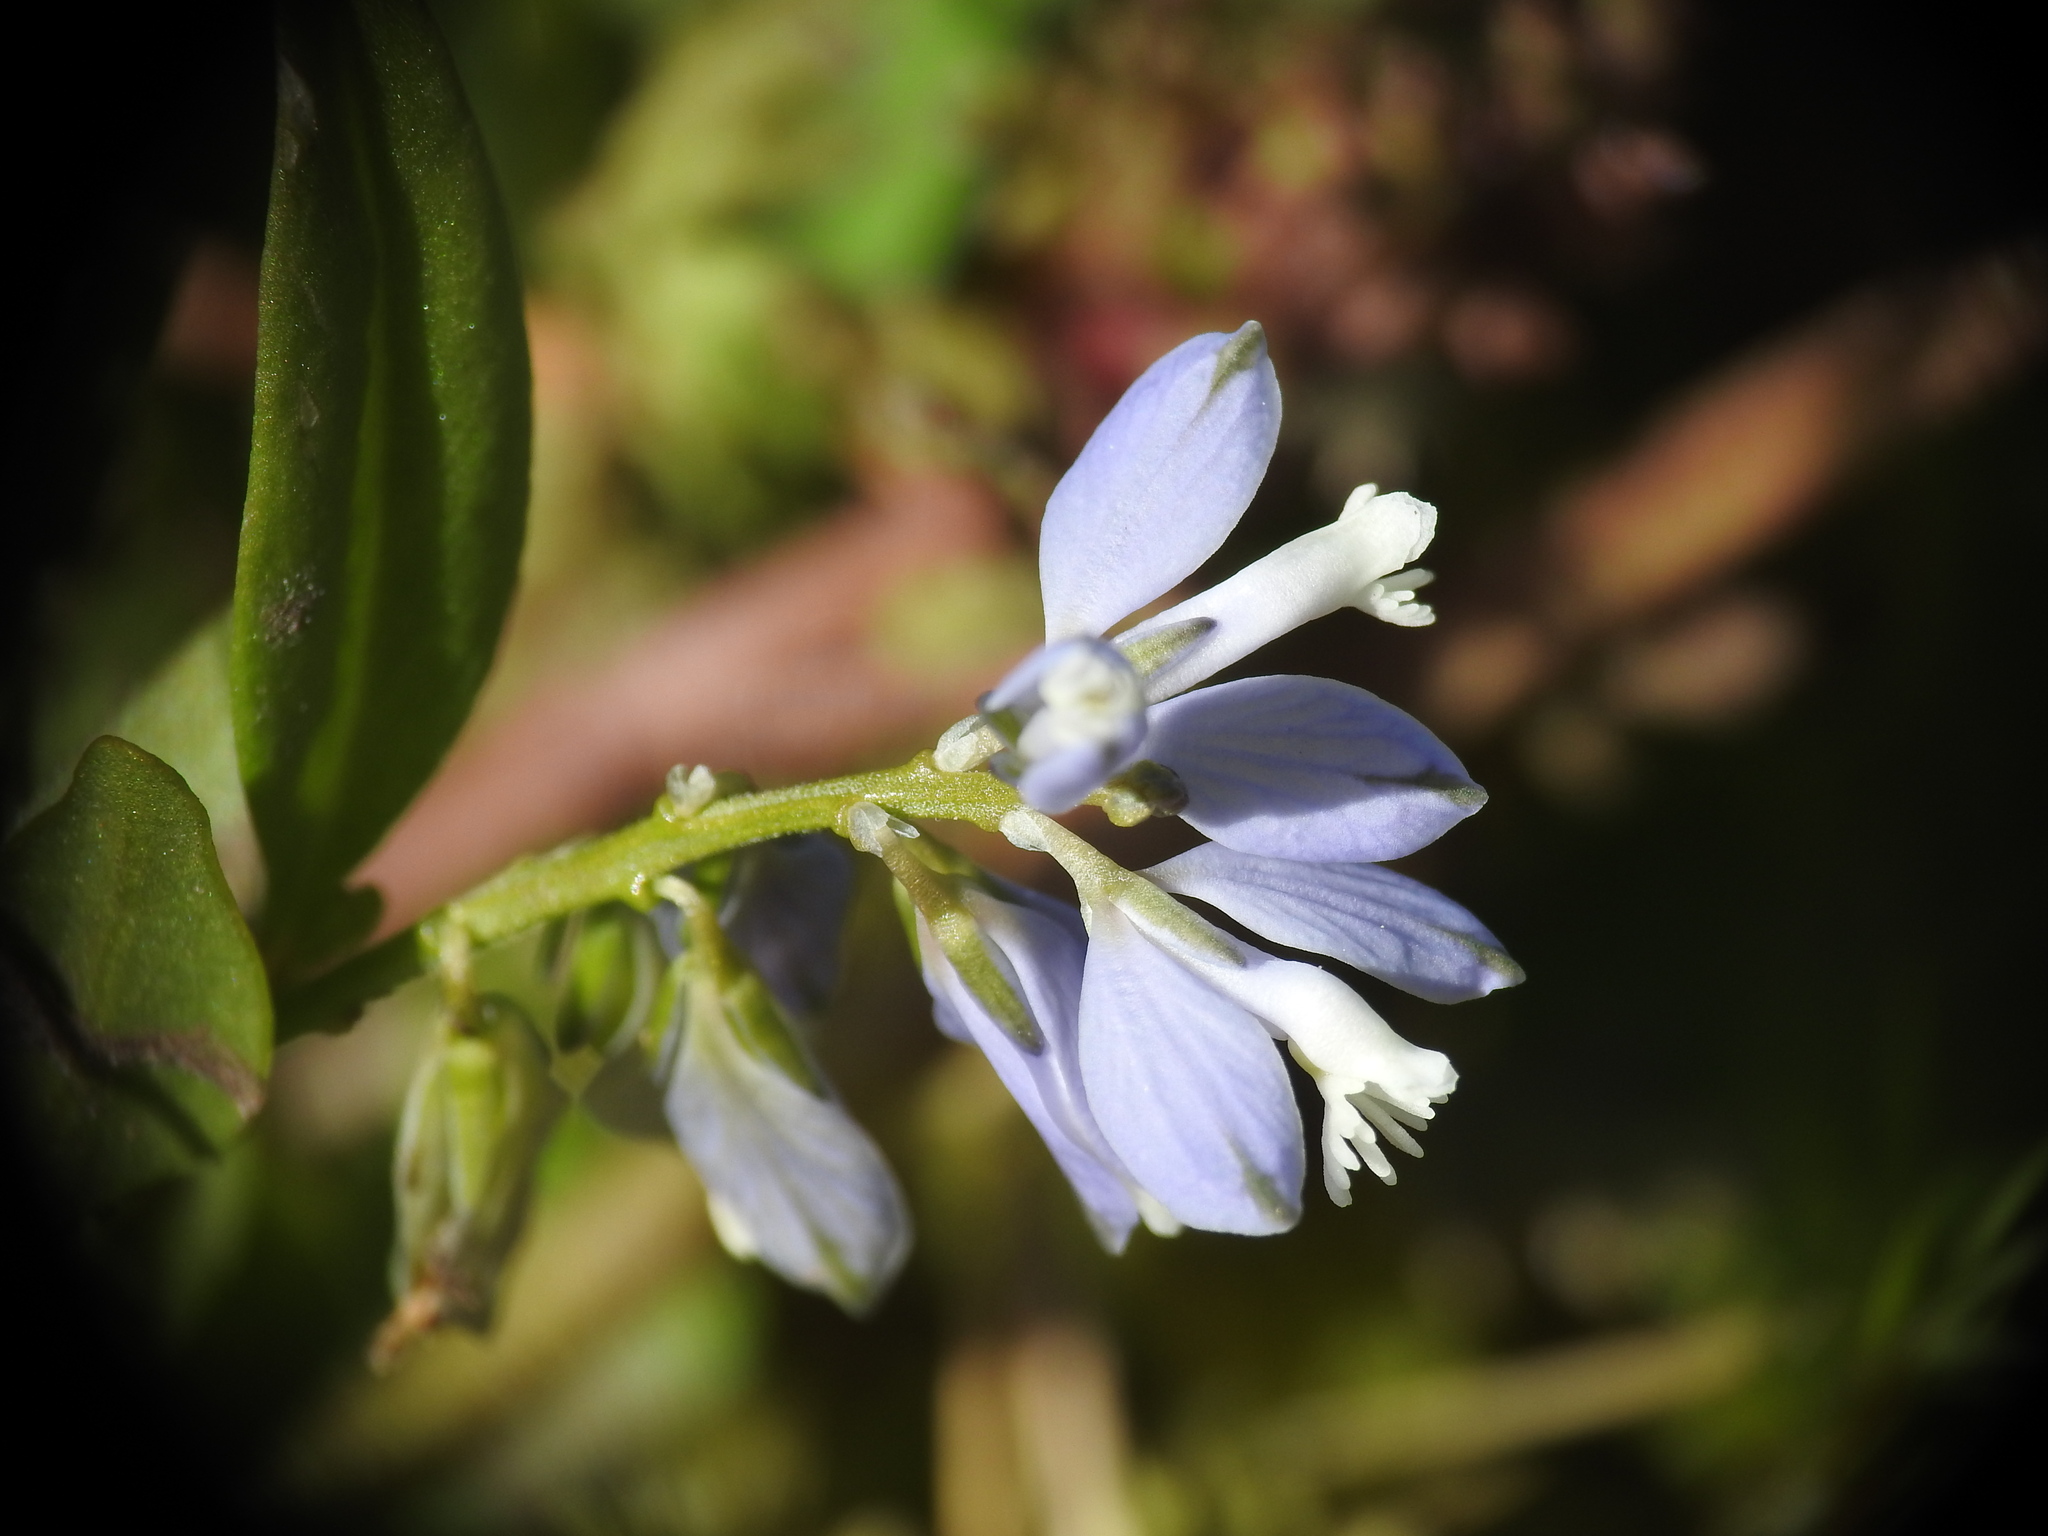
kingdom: Plantae
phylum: Tracheophyta
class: Magnoliopsida
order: Fabales
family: Polygalaceae
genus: Polygala
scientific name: Polygala serpyllifolia
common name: Heath milkwort
